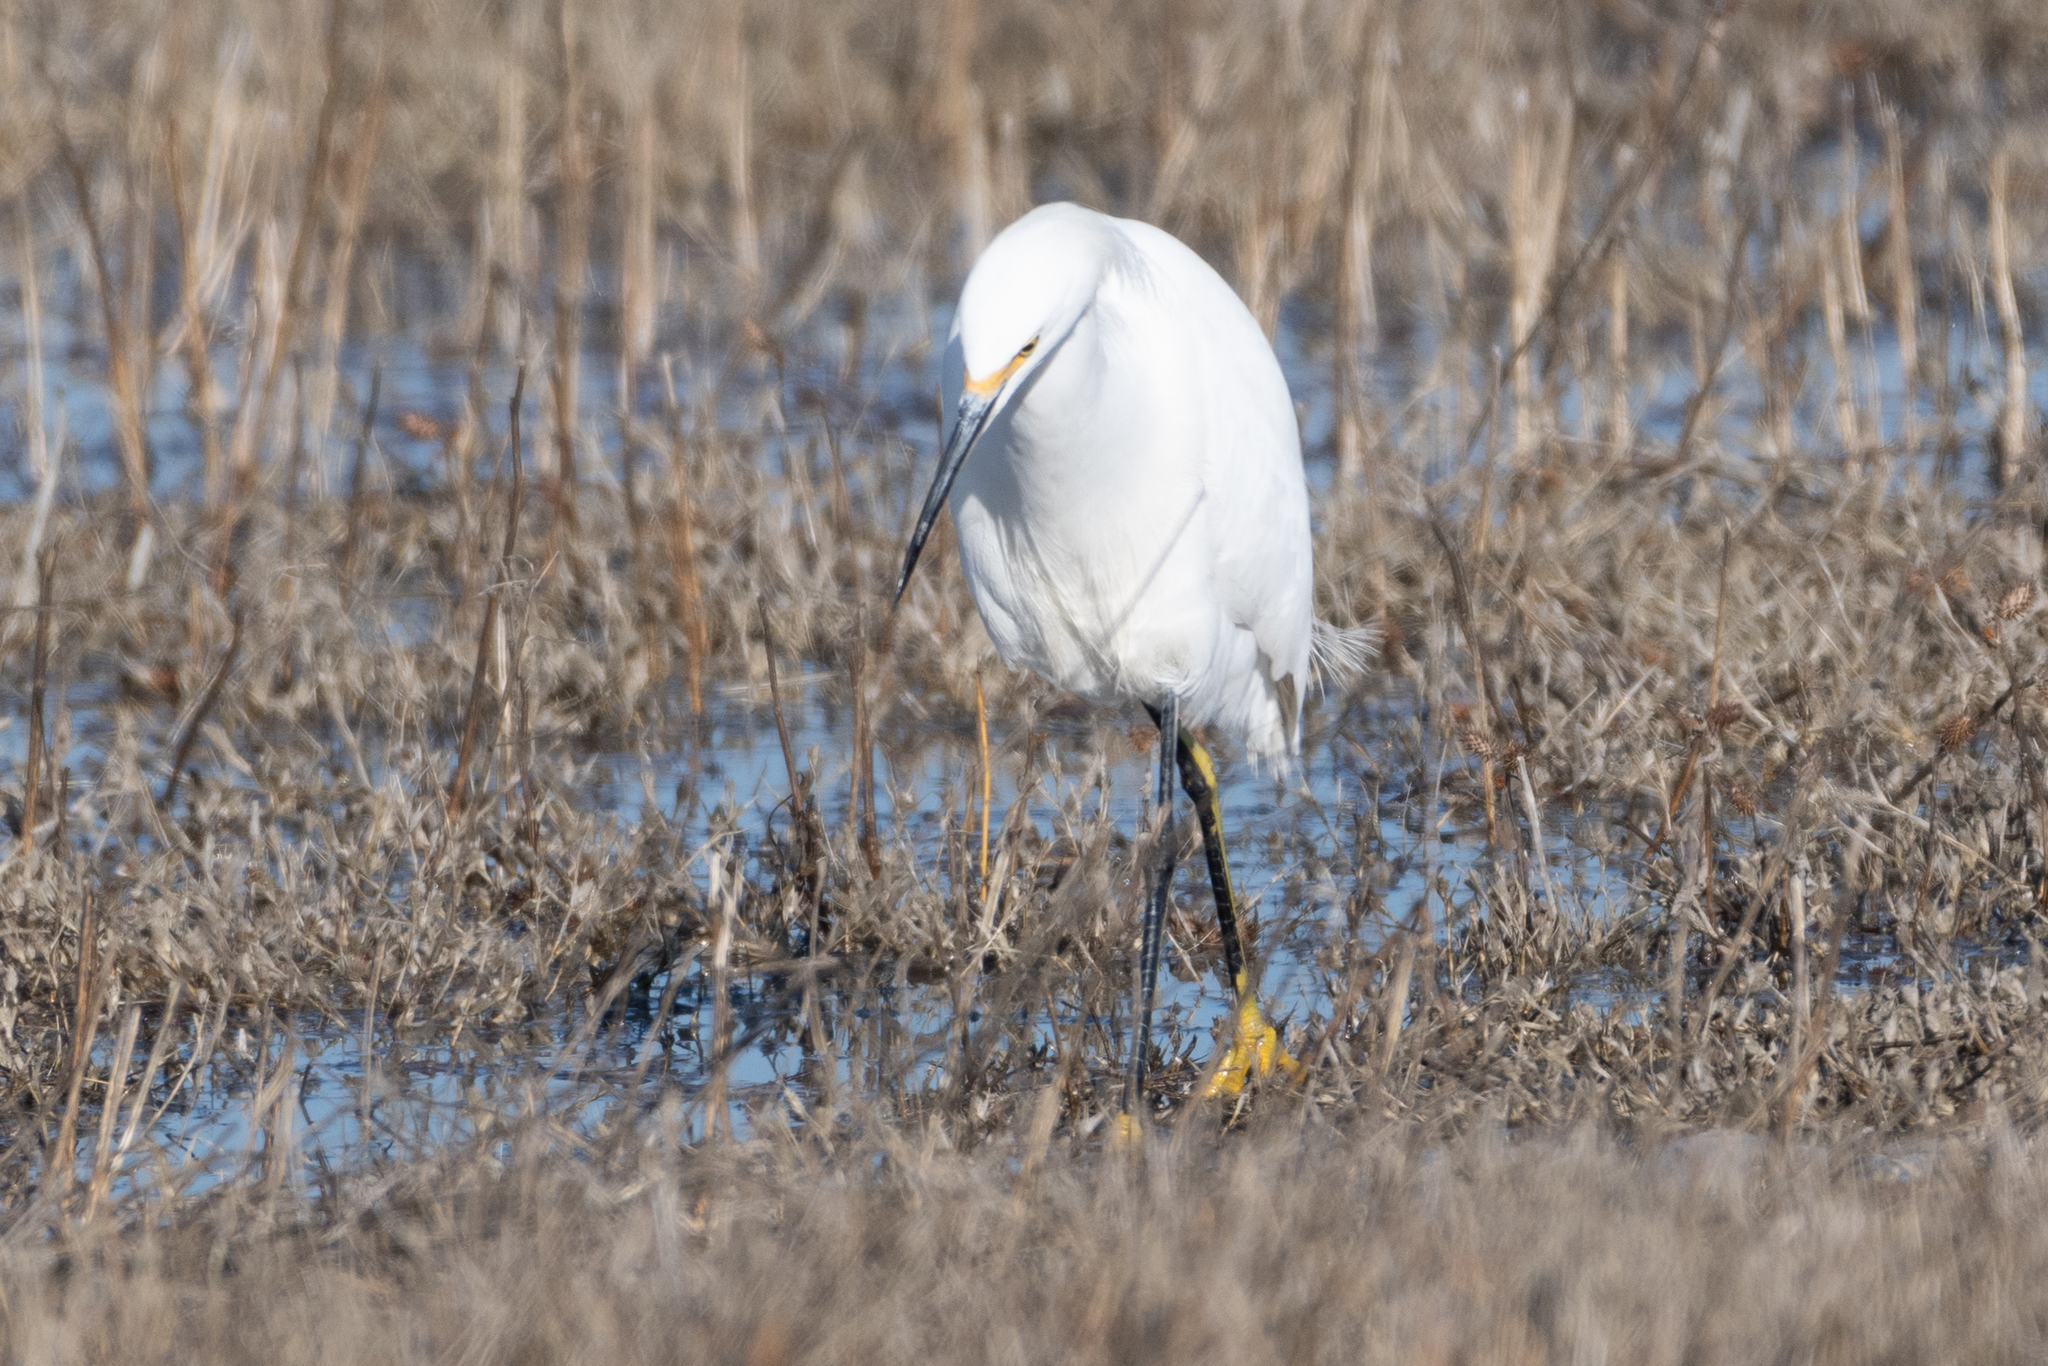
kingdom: Animalia
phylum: Chordata
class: Aves
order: Pelecaniformes
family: Ardeidae
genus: Egretta
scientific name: Egretta thula
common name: Snowy egret
